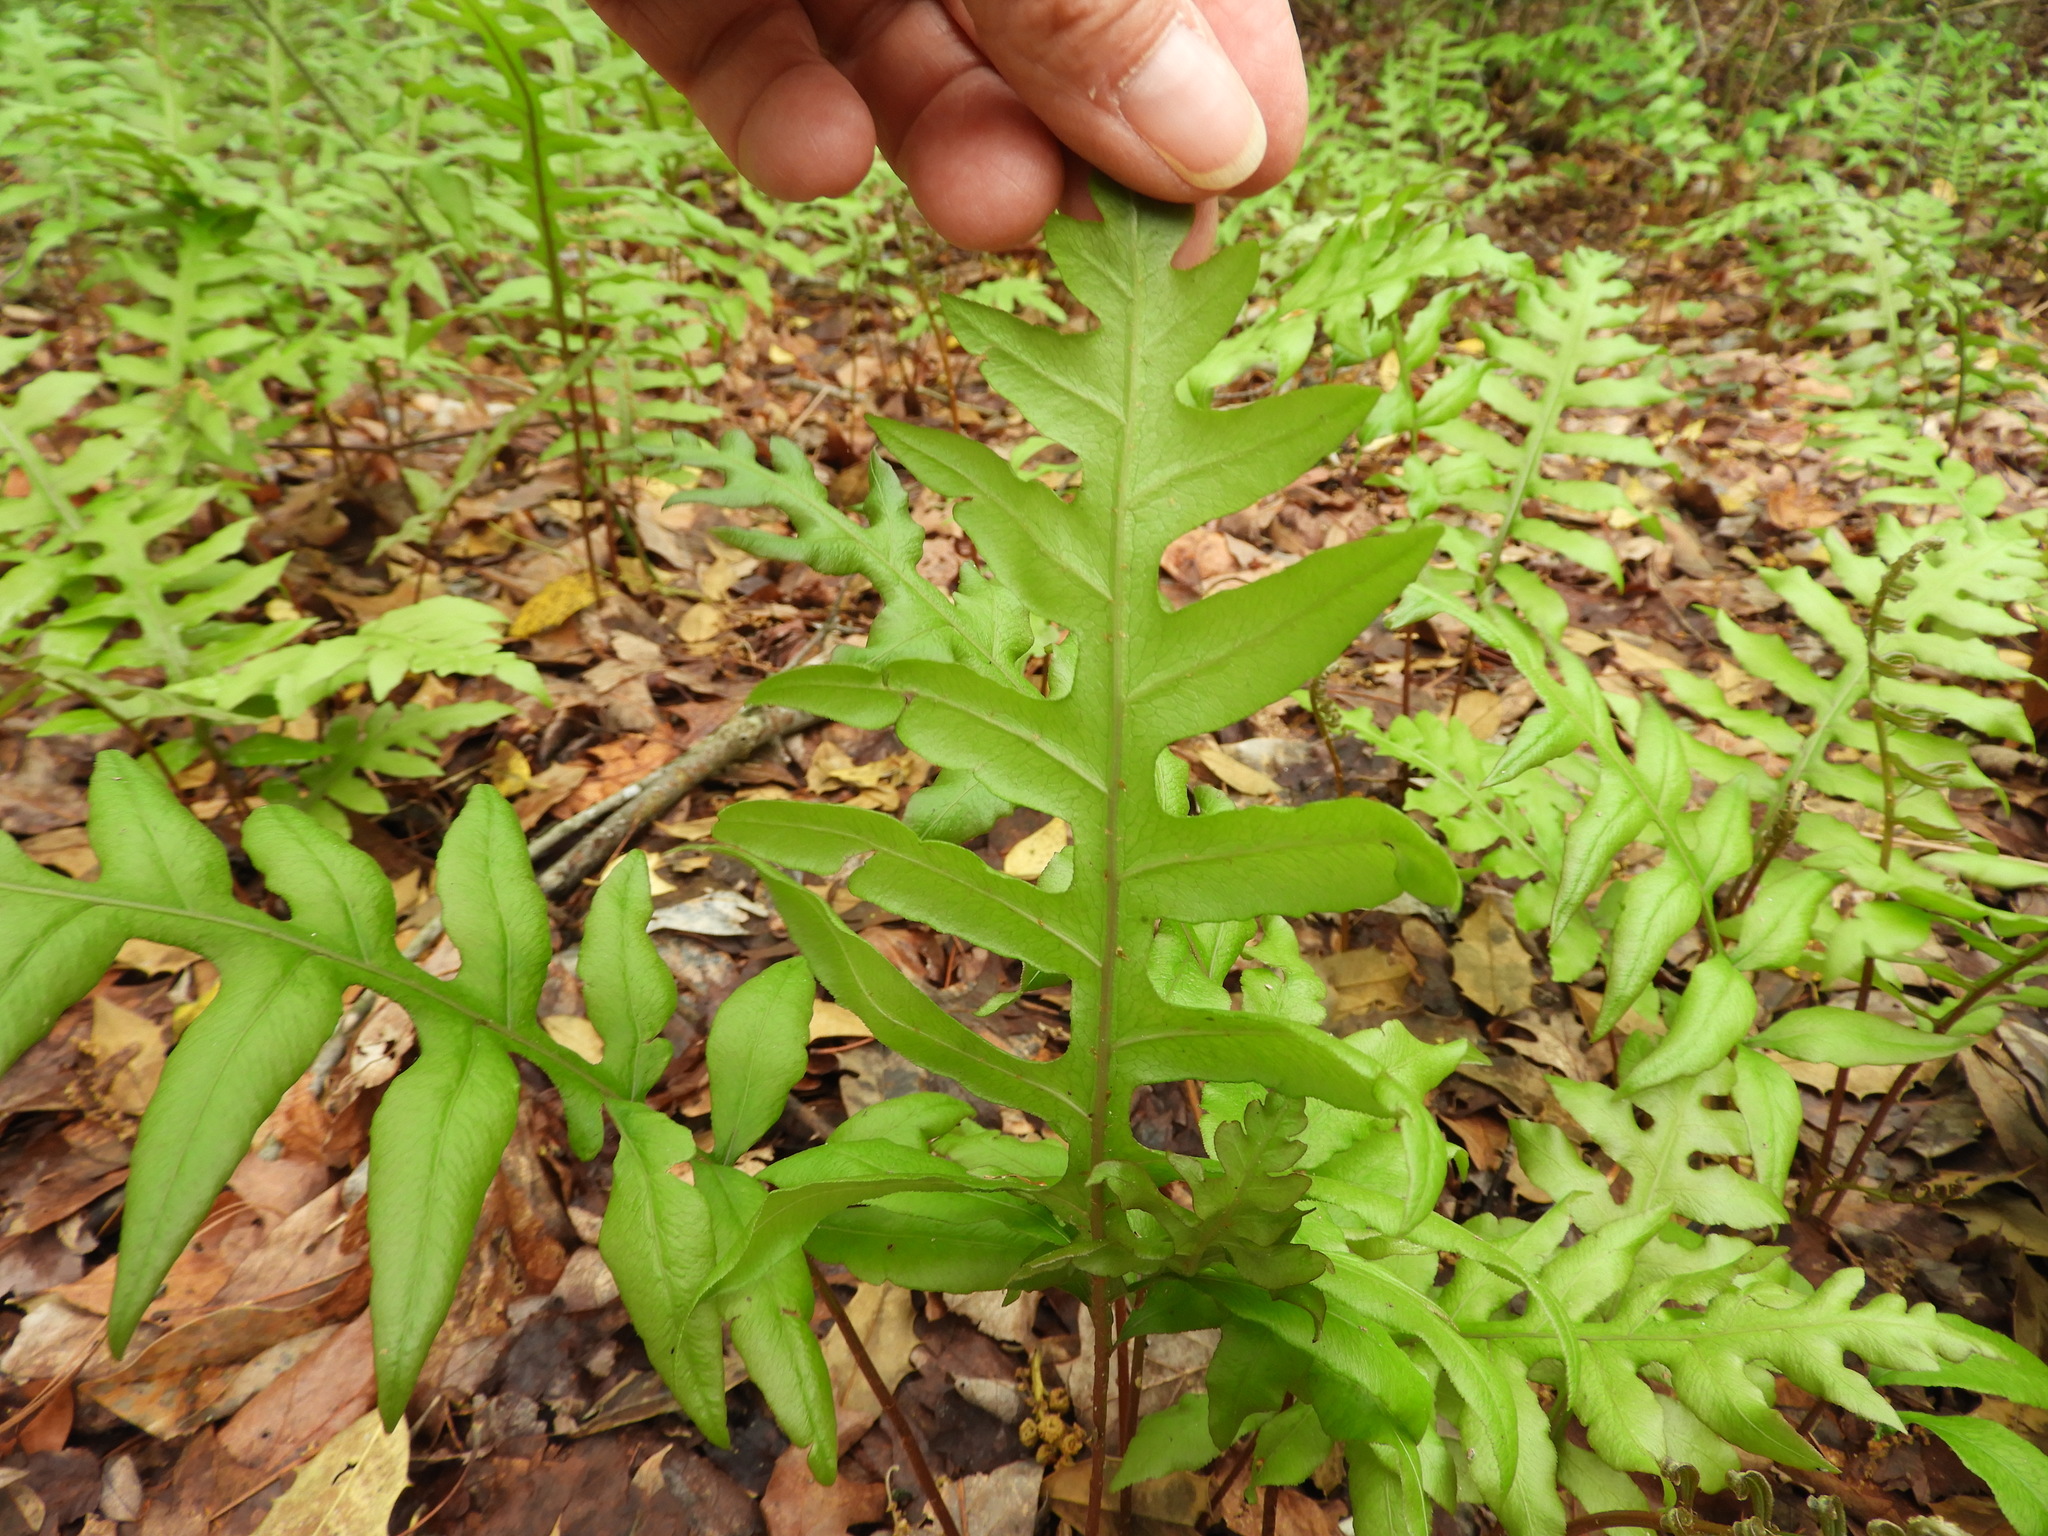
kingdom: Plantae
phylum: Tracheophyta
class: Polypodiopsida
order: Polypodiales
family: Blechnaceae
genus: Lorinseria
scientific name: Lorinseria areolata
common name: Dwarf chain fern
